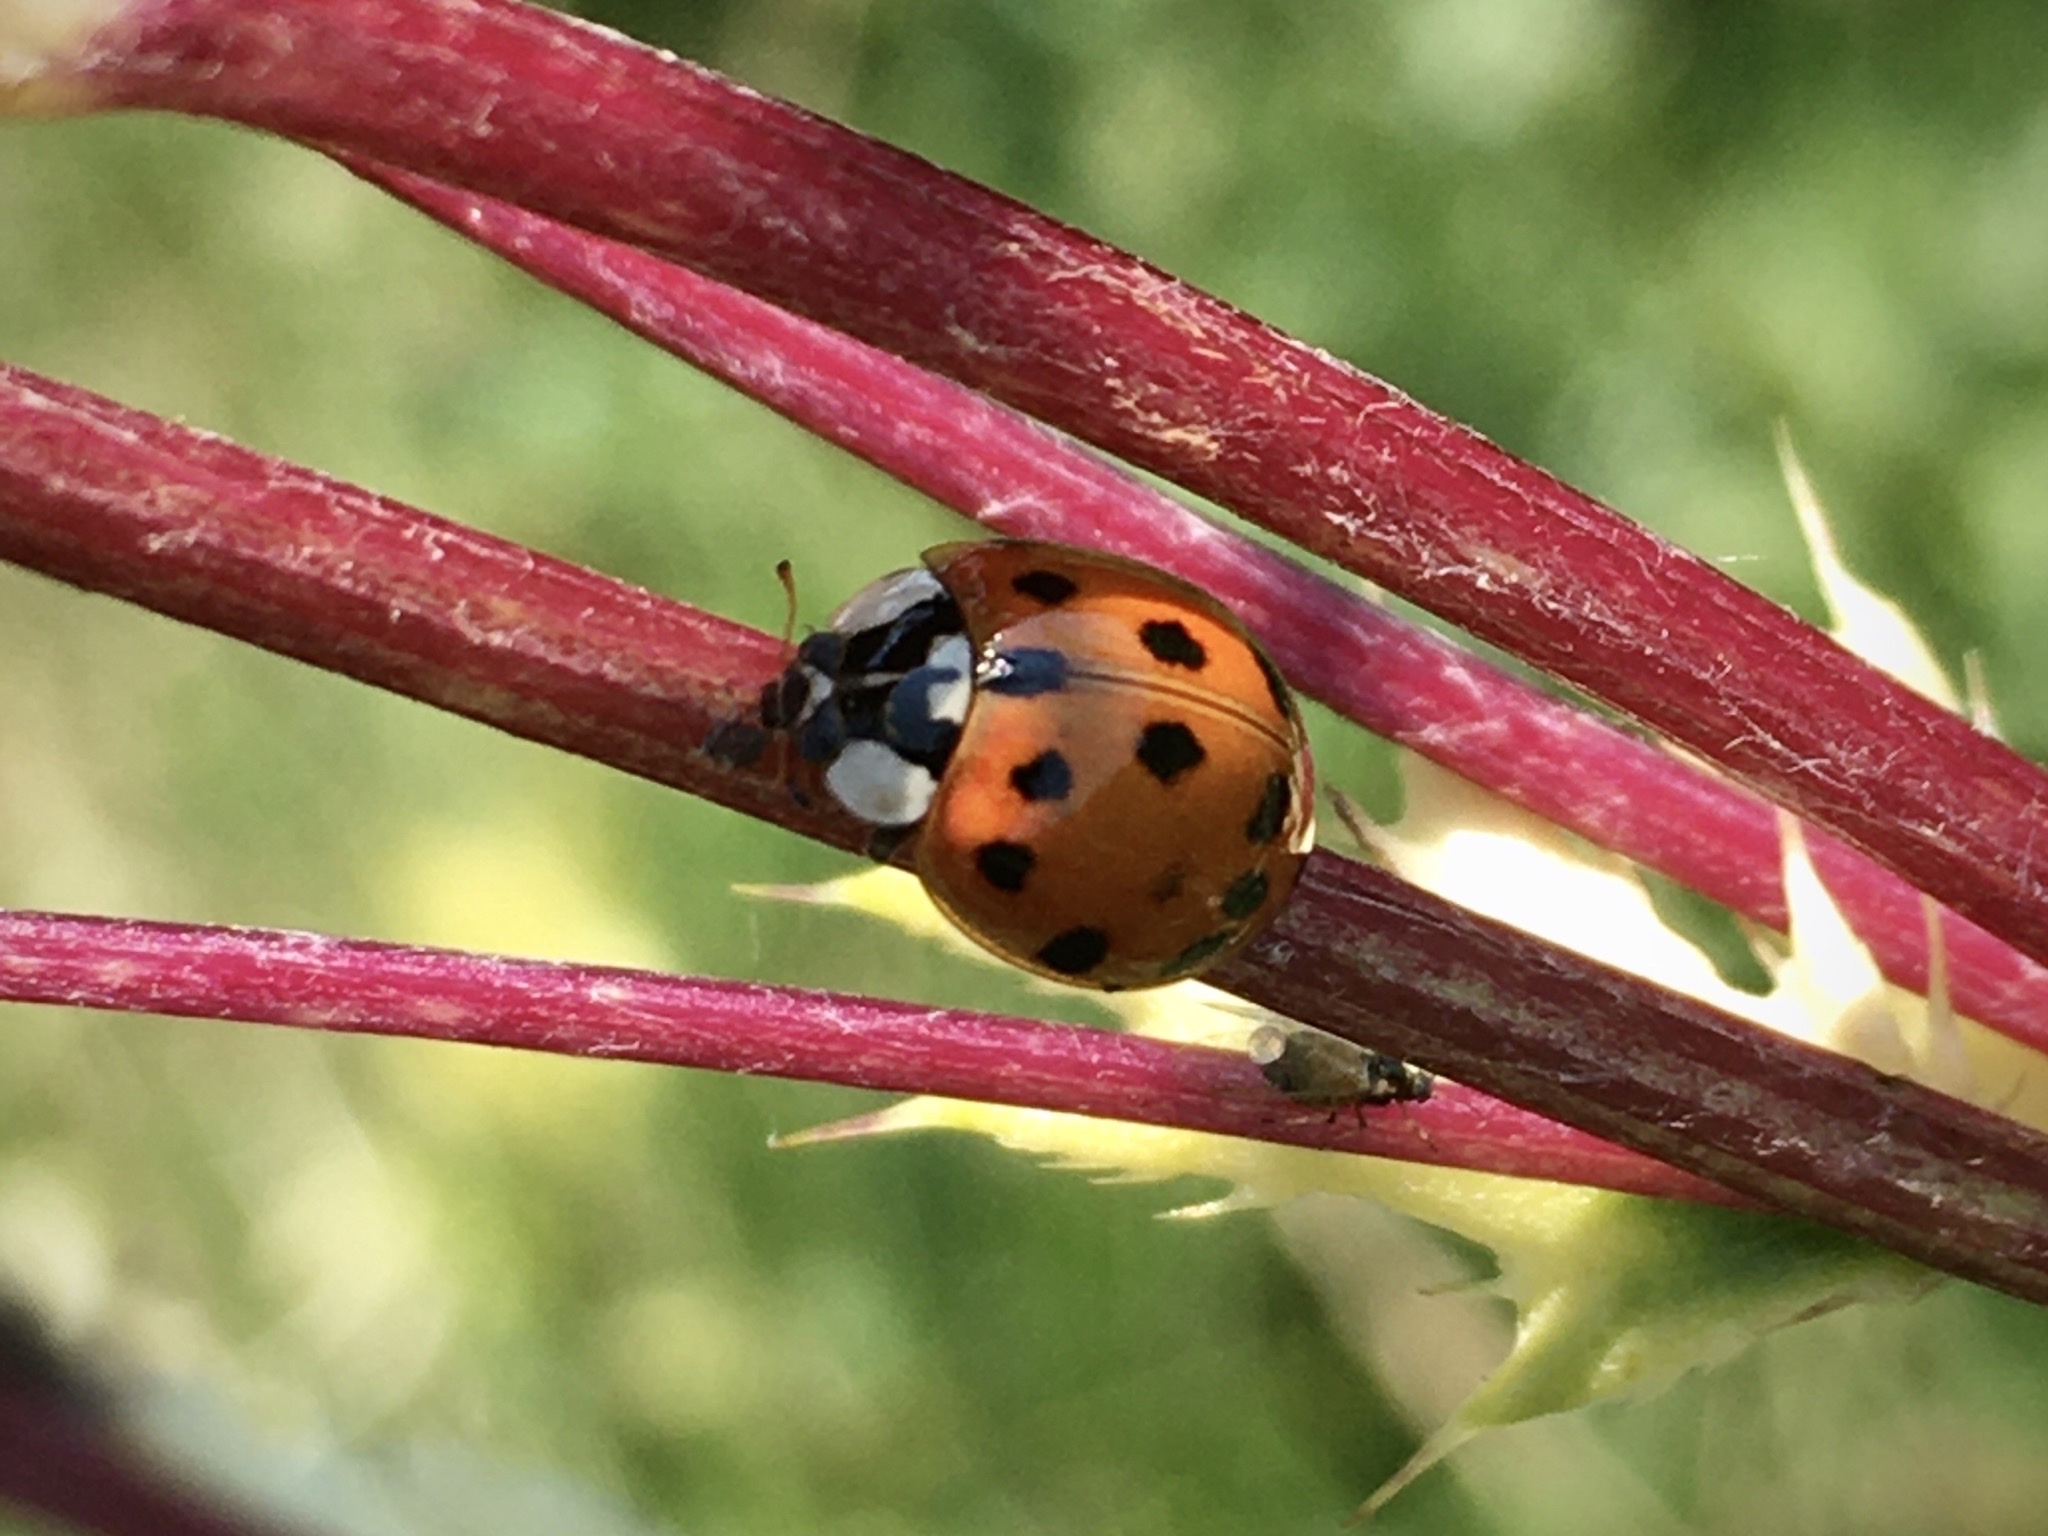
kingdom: Animalia
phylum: Arthropoda
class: Insecta
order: Coleoptera
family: Coccinellidae
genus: Harmonia
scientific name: Harmonia axyridis
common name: Harlequin ladybird
